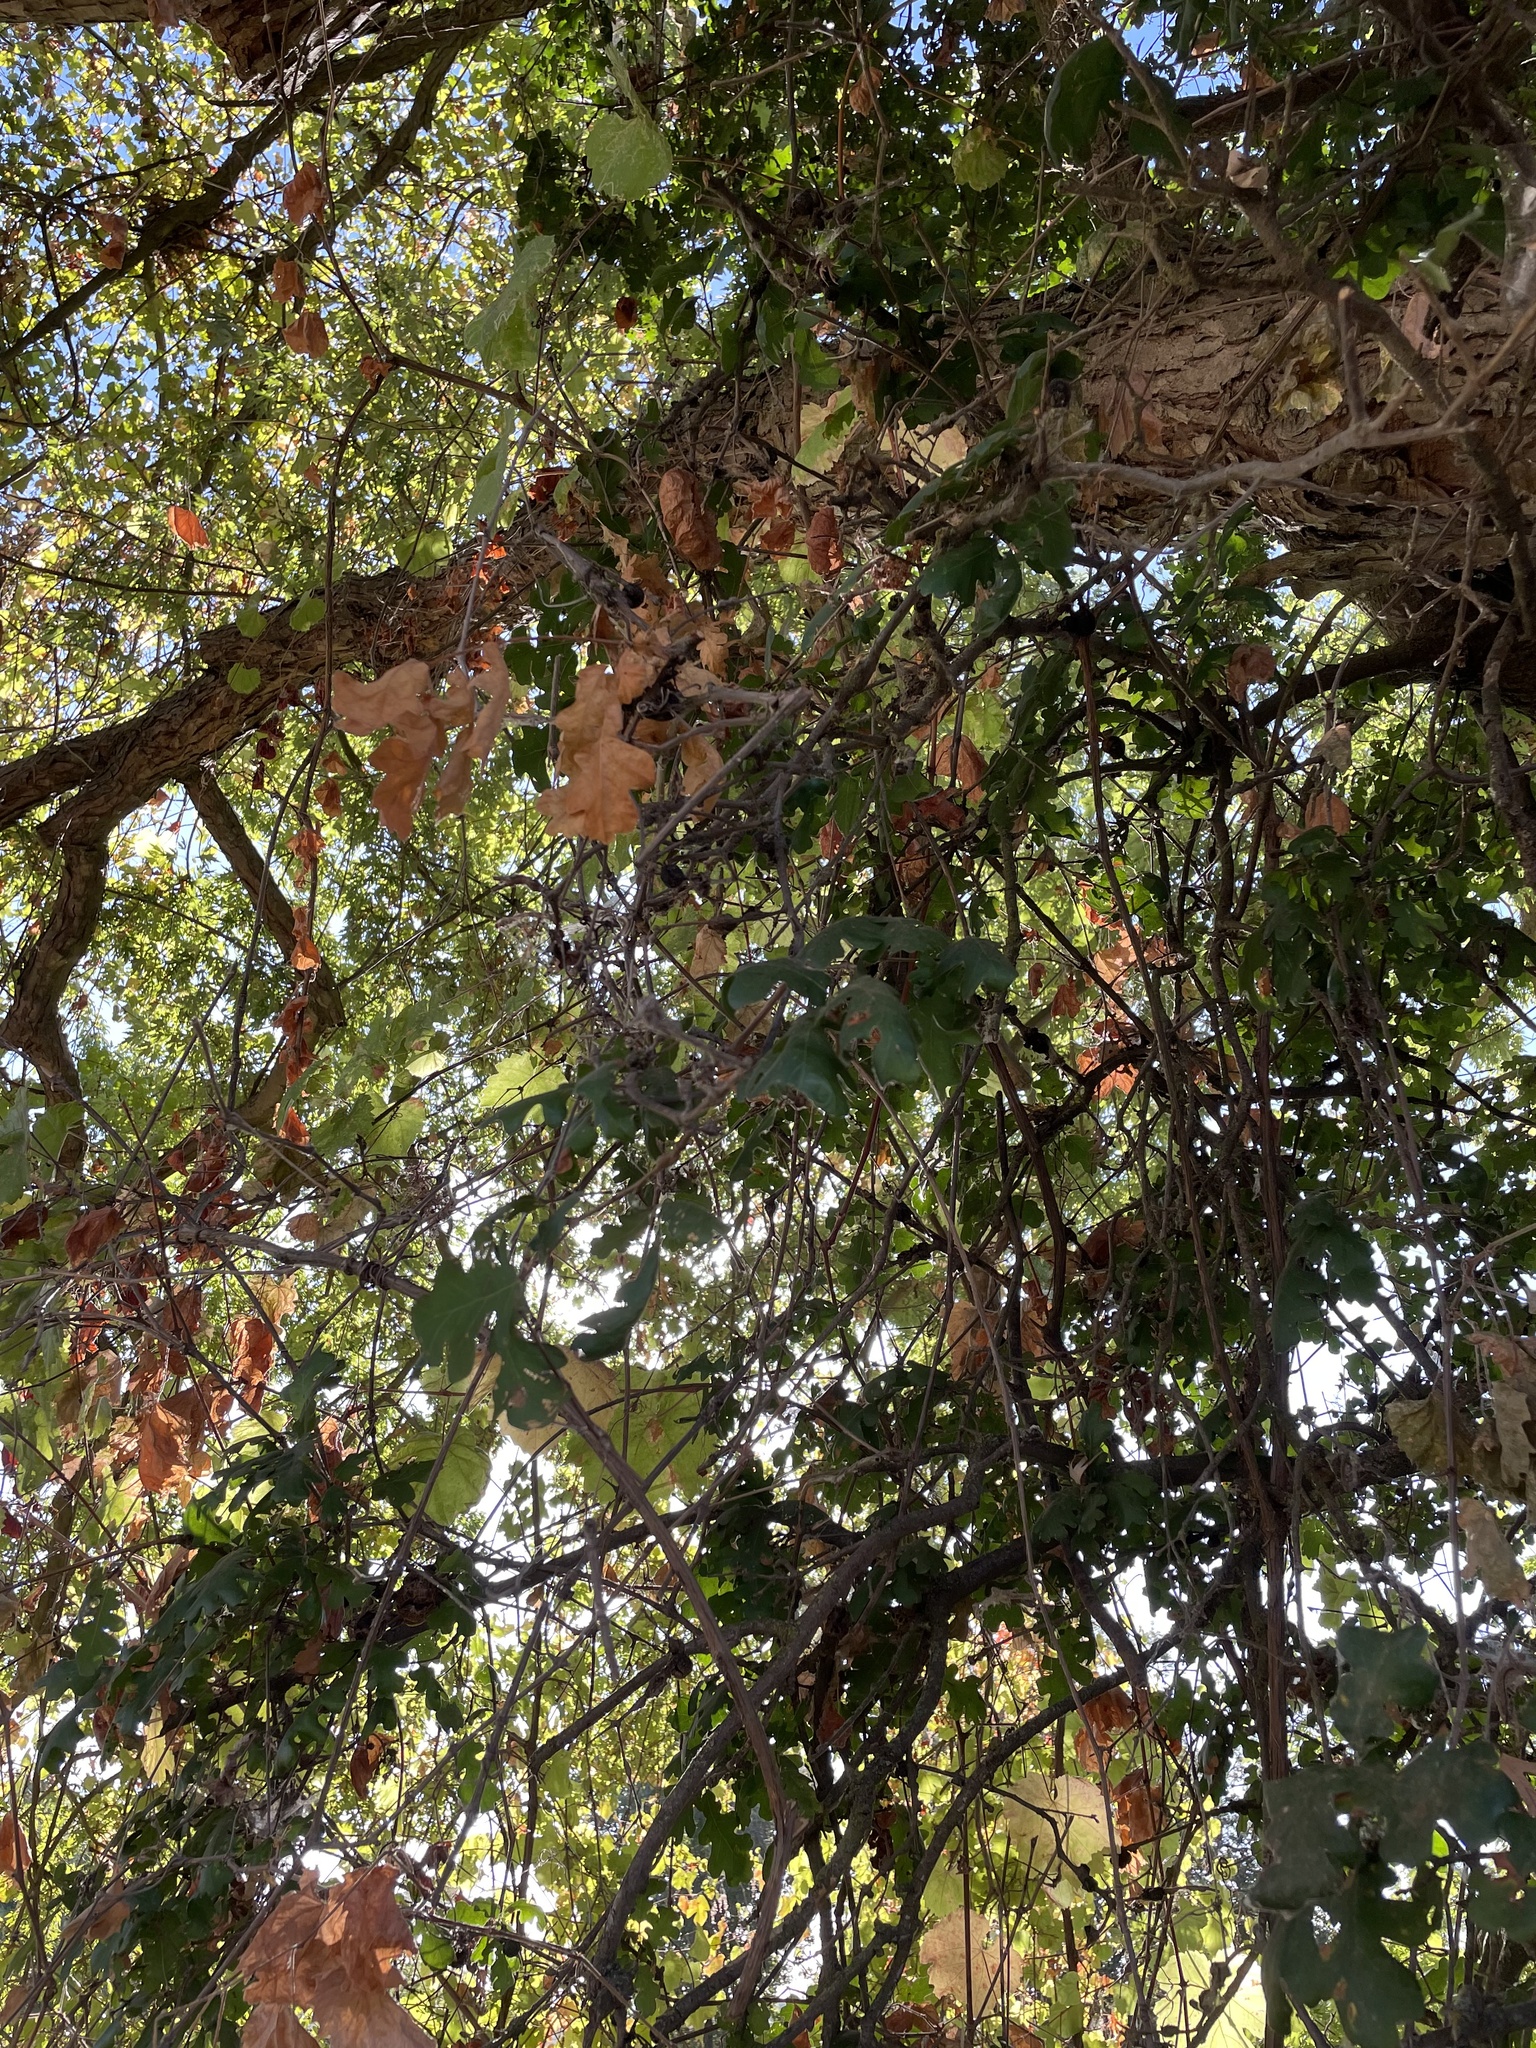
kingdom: Plantae
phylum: Tracheophyta
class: Magnoliopsida
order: Fagales
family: Fagaceae
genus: Quercus
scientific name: Quercus lobata
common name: Valley oak
